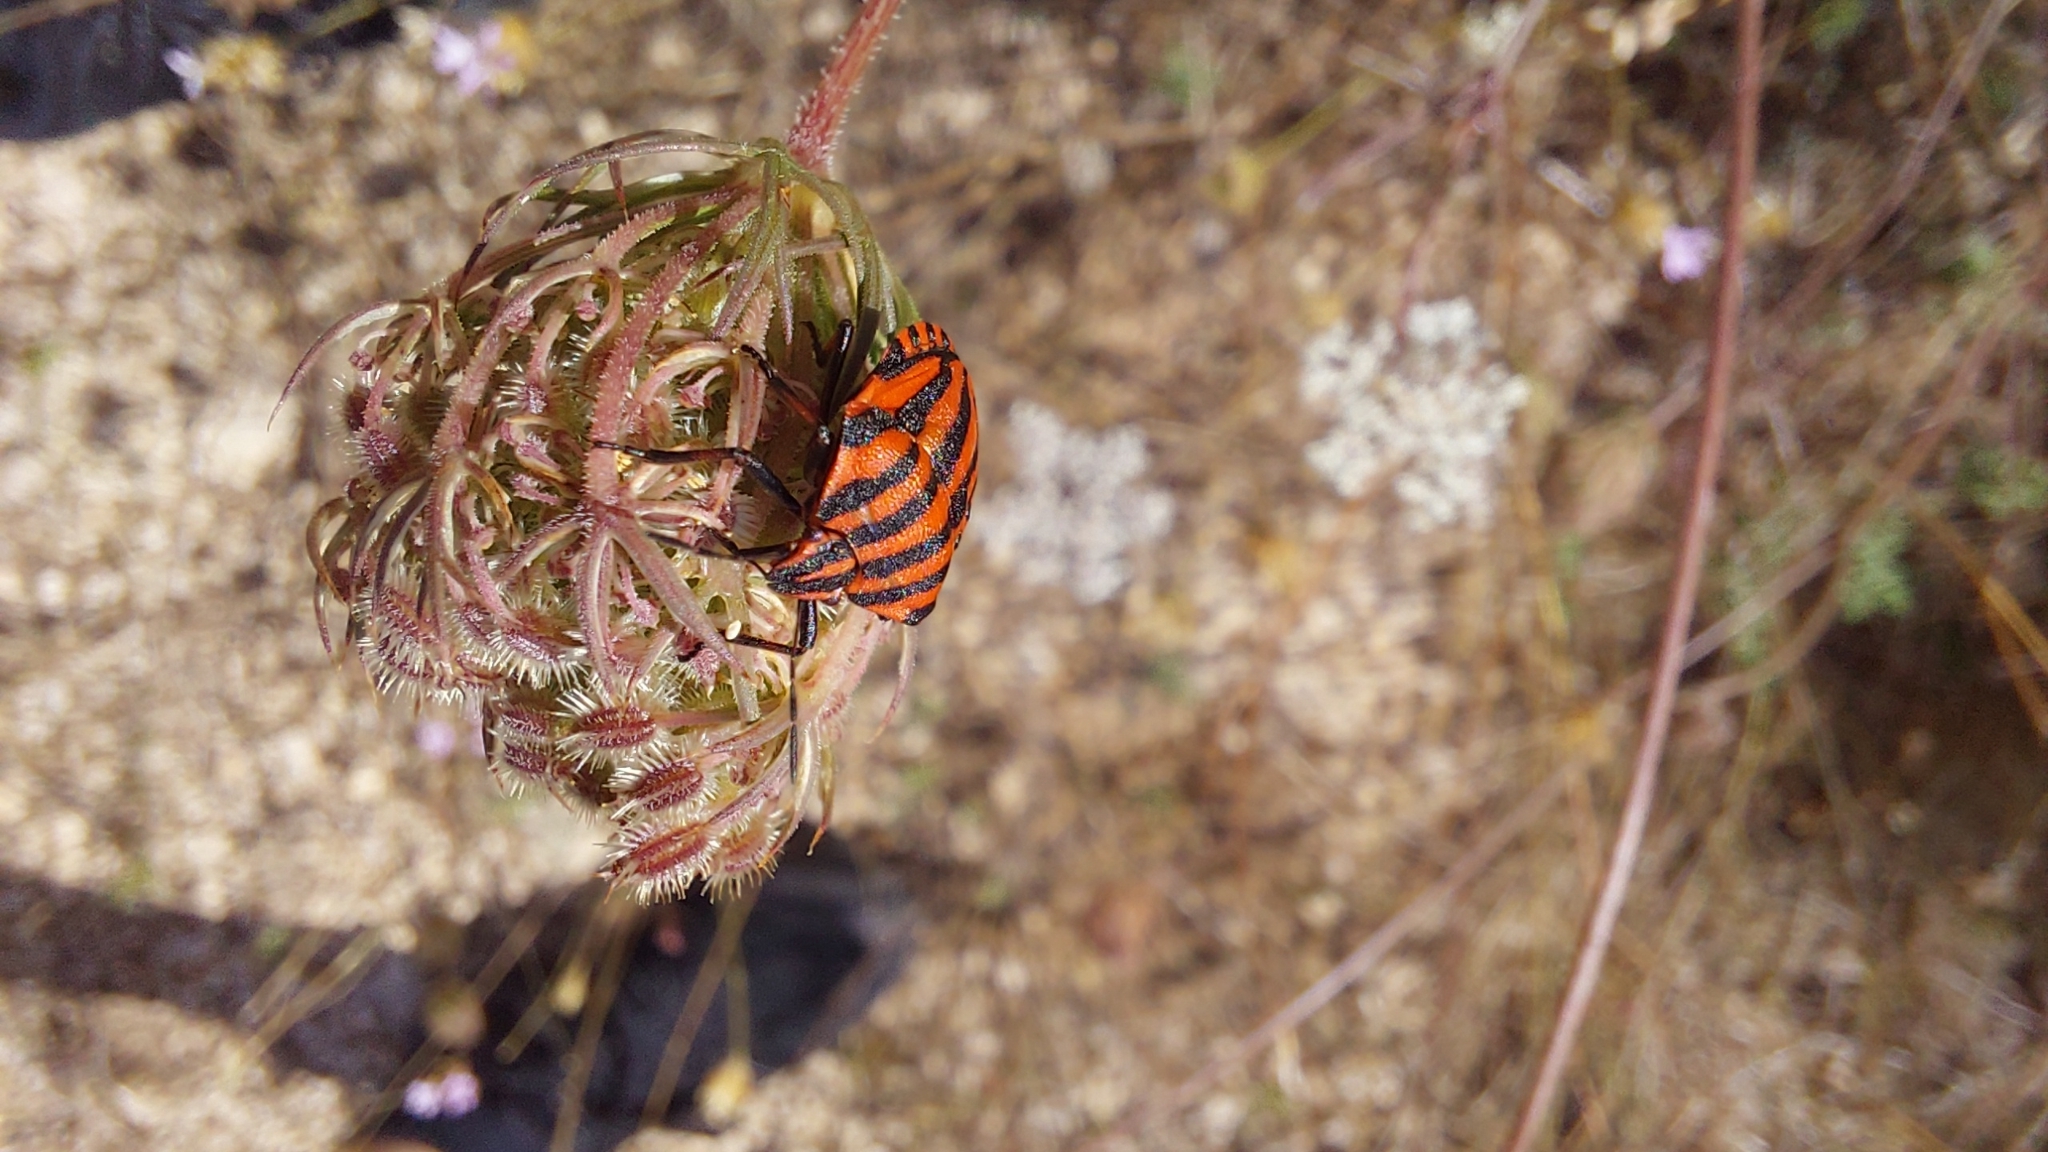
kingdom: Animalia
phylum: Arthropoda
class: Insecta
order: Hemiptera
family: Pentatomidae
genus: Graphosoma
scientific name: Graphosoma italicum
